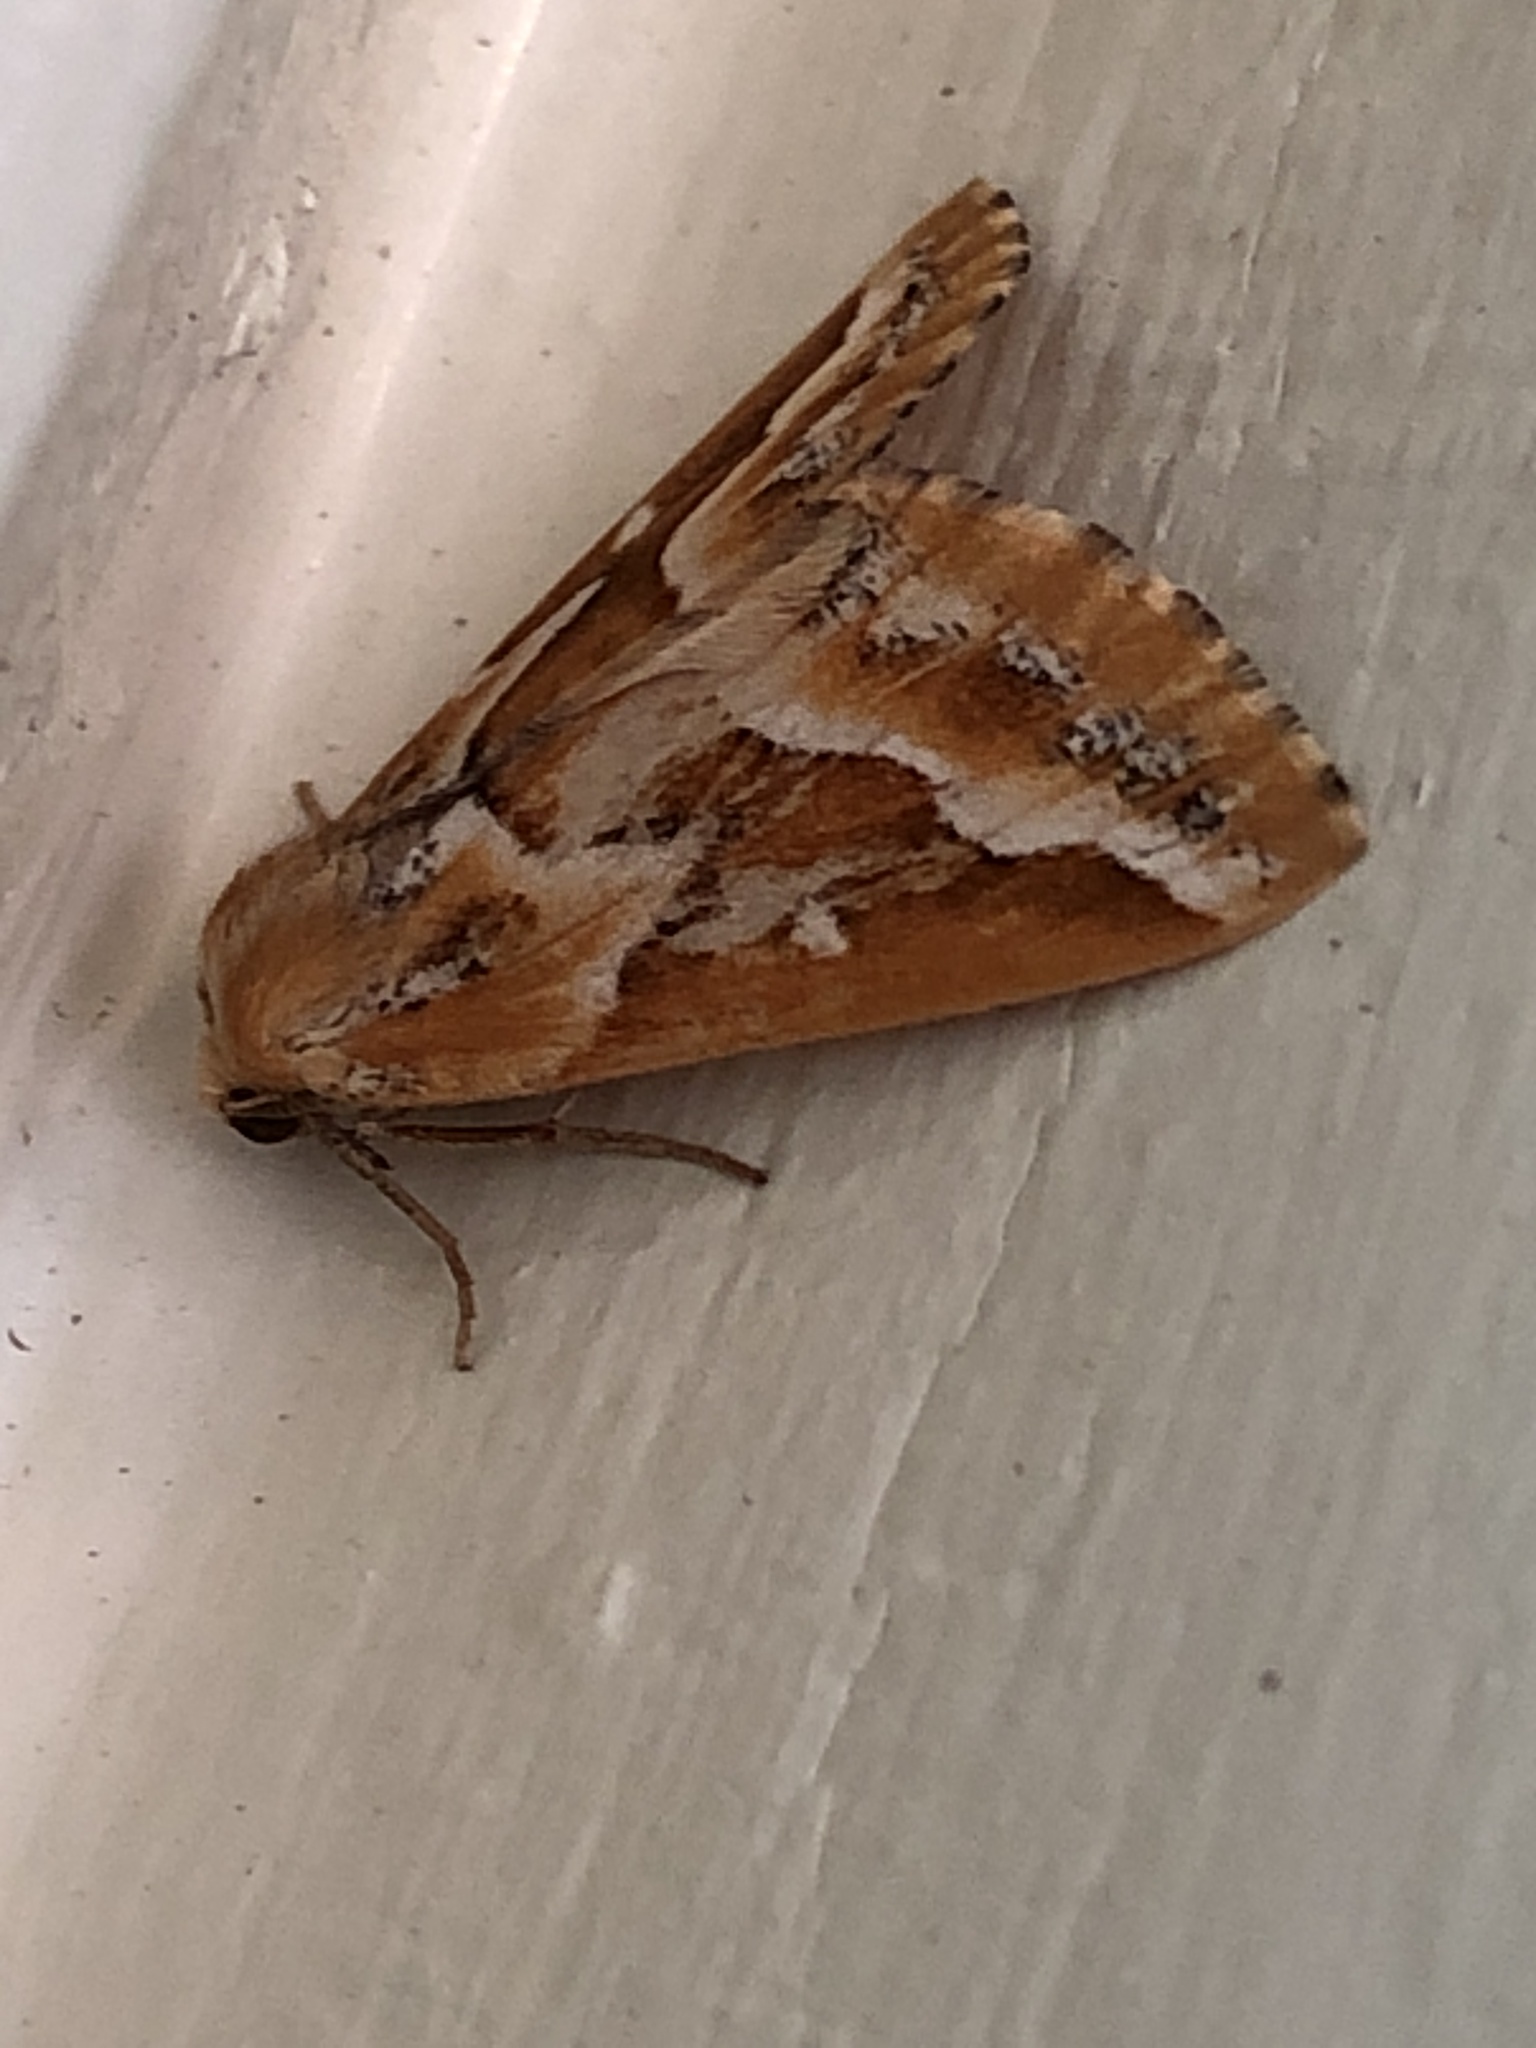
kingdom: Animalia
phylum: Arthropoda
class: Insecta
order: Lepidoptera
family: Geometridae
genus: Caripeta
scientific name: Caripeta angustiorata
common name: Brown pine looper
